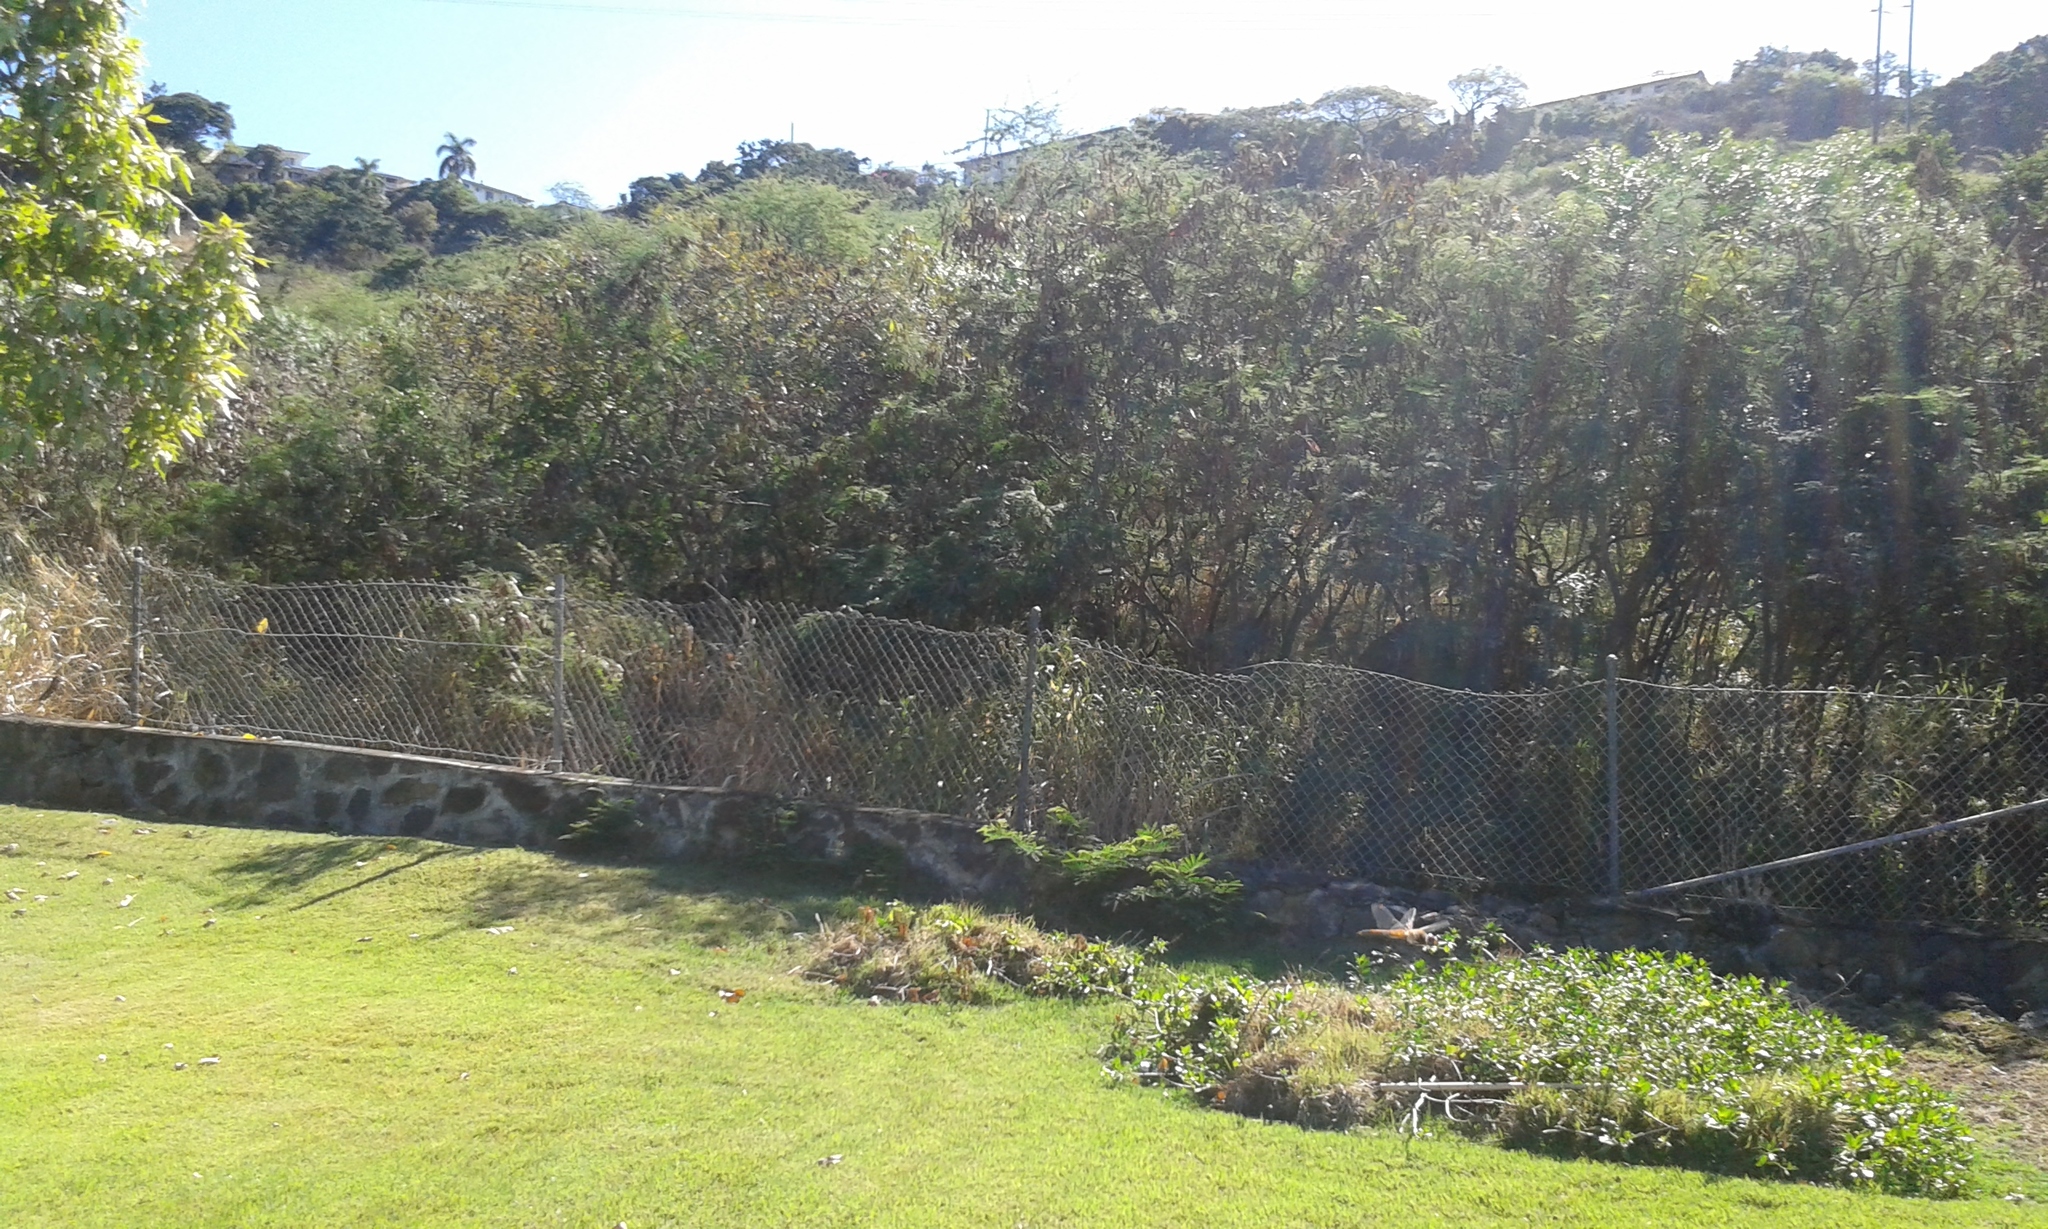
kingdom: Animalia
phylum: Arthropoda
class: Insecta
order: Odonata
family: Libellulidae
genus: Pantala
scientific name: Pantala flavescens
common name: Wandering glider
